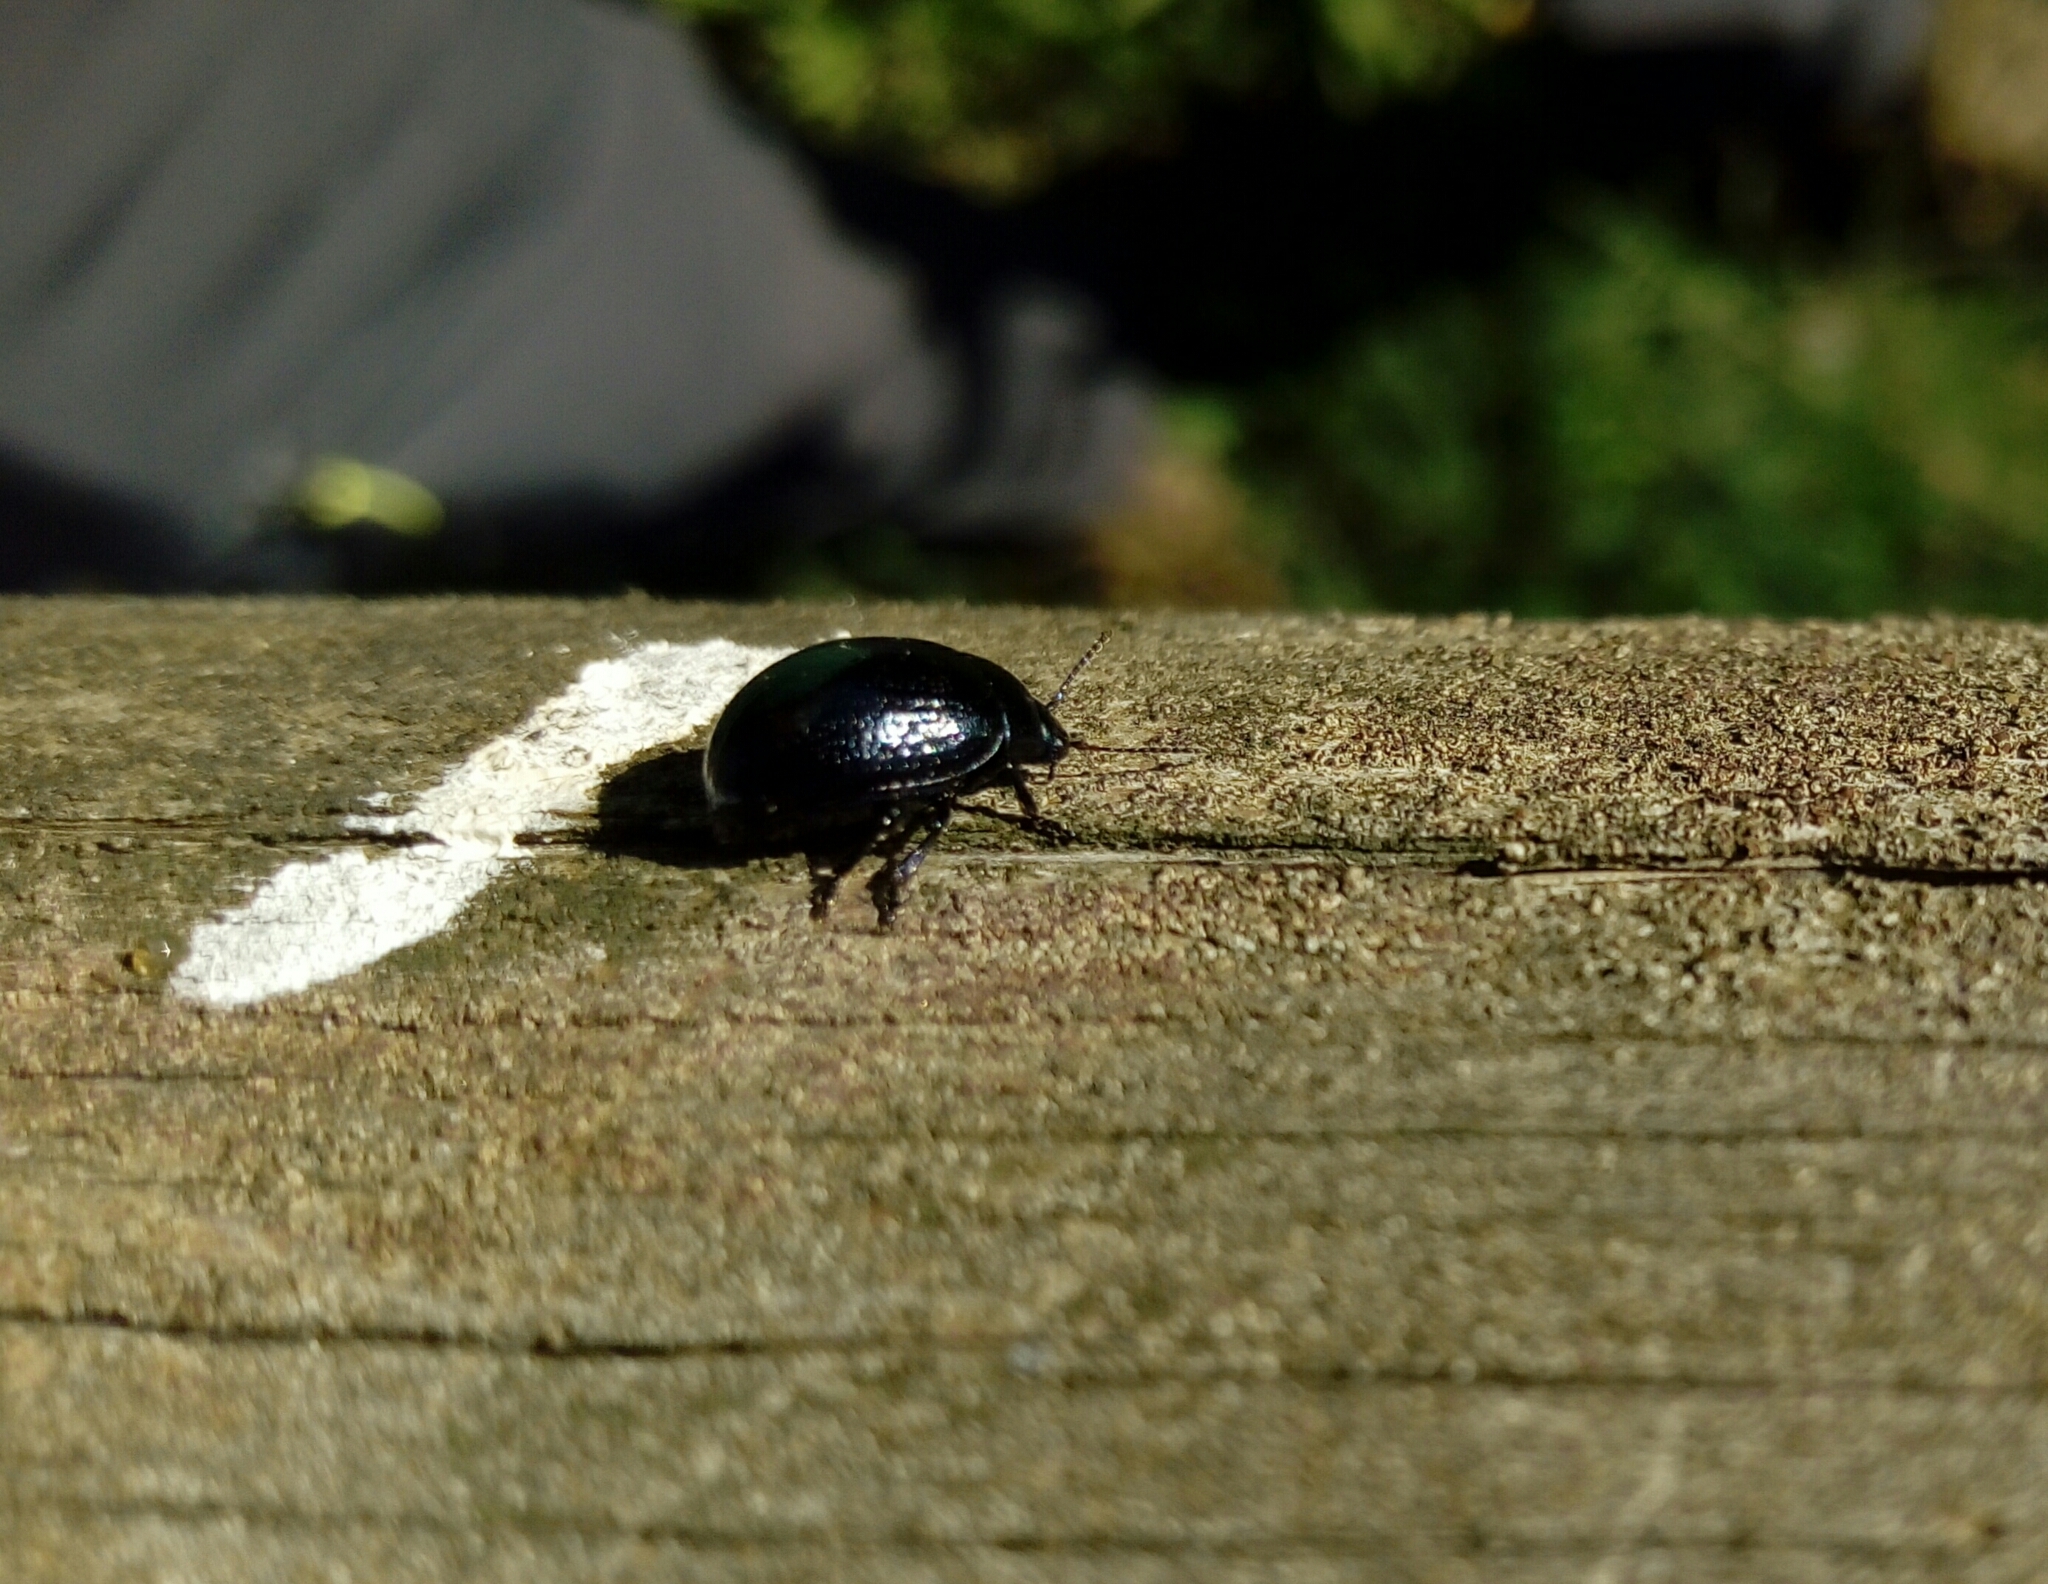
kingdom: Animalia
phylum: Arthropoda
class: Insecta
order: Coleoptera
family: Chrysomelidae
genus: Chrysolina
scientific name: Chrysolina haemoptera
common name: Plantain leaf beetle
